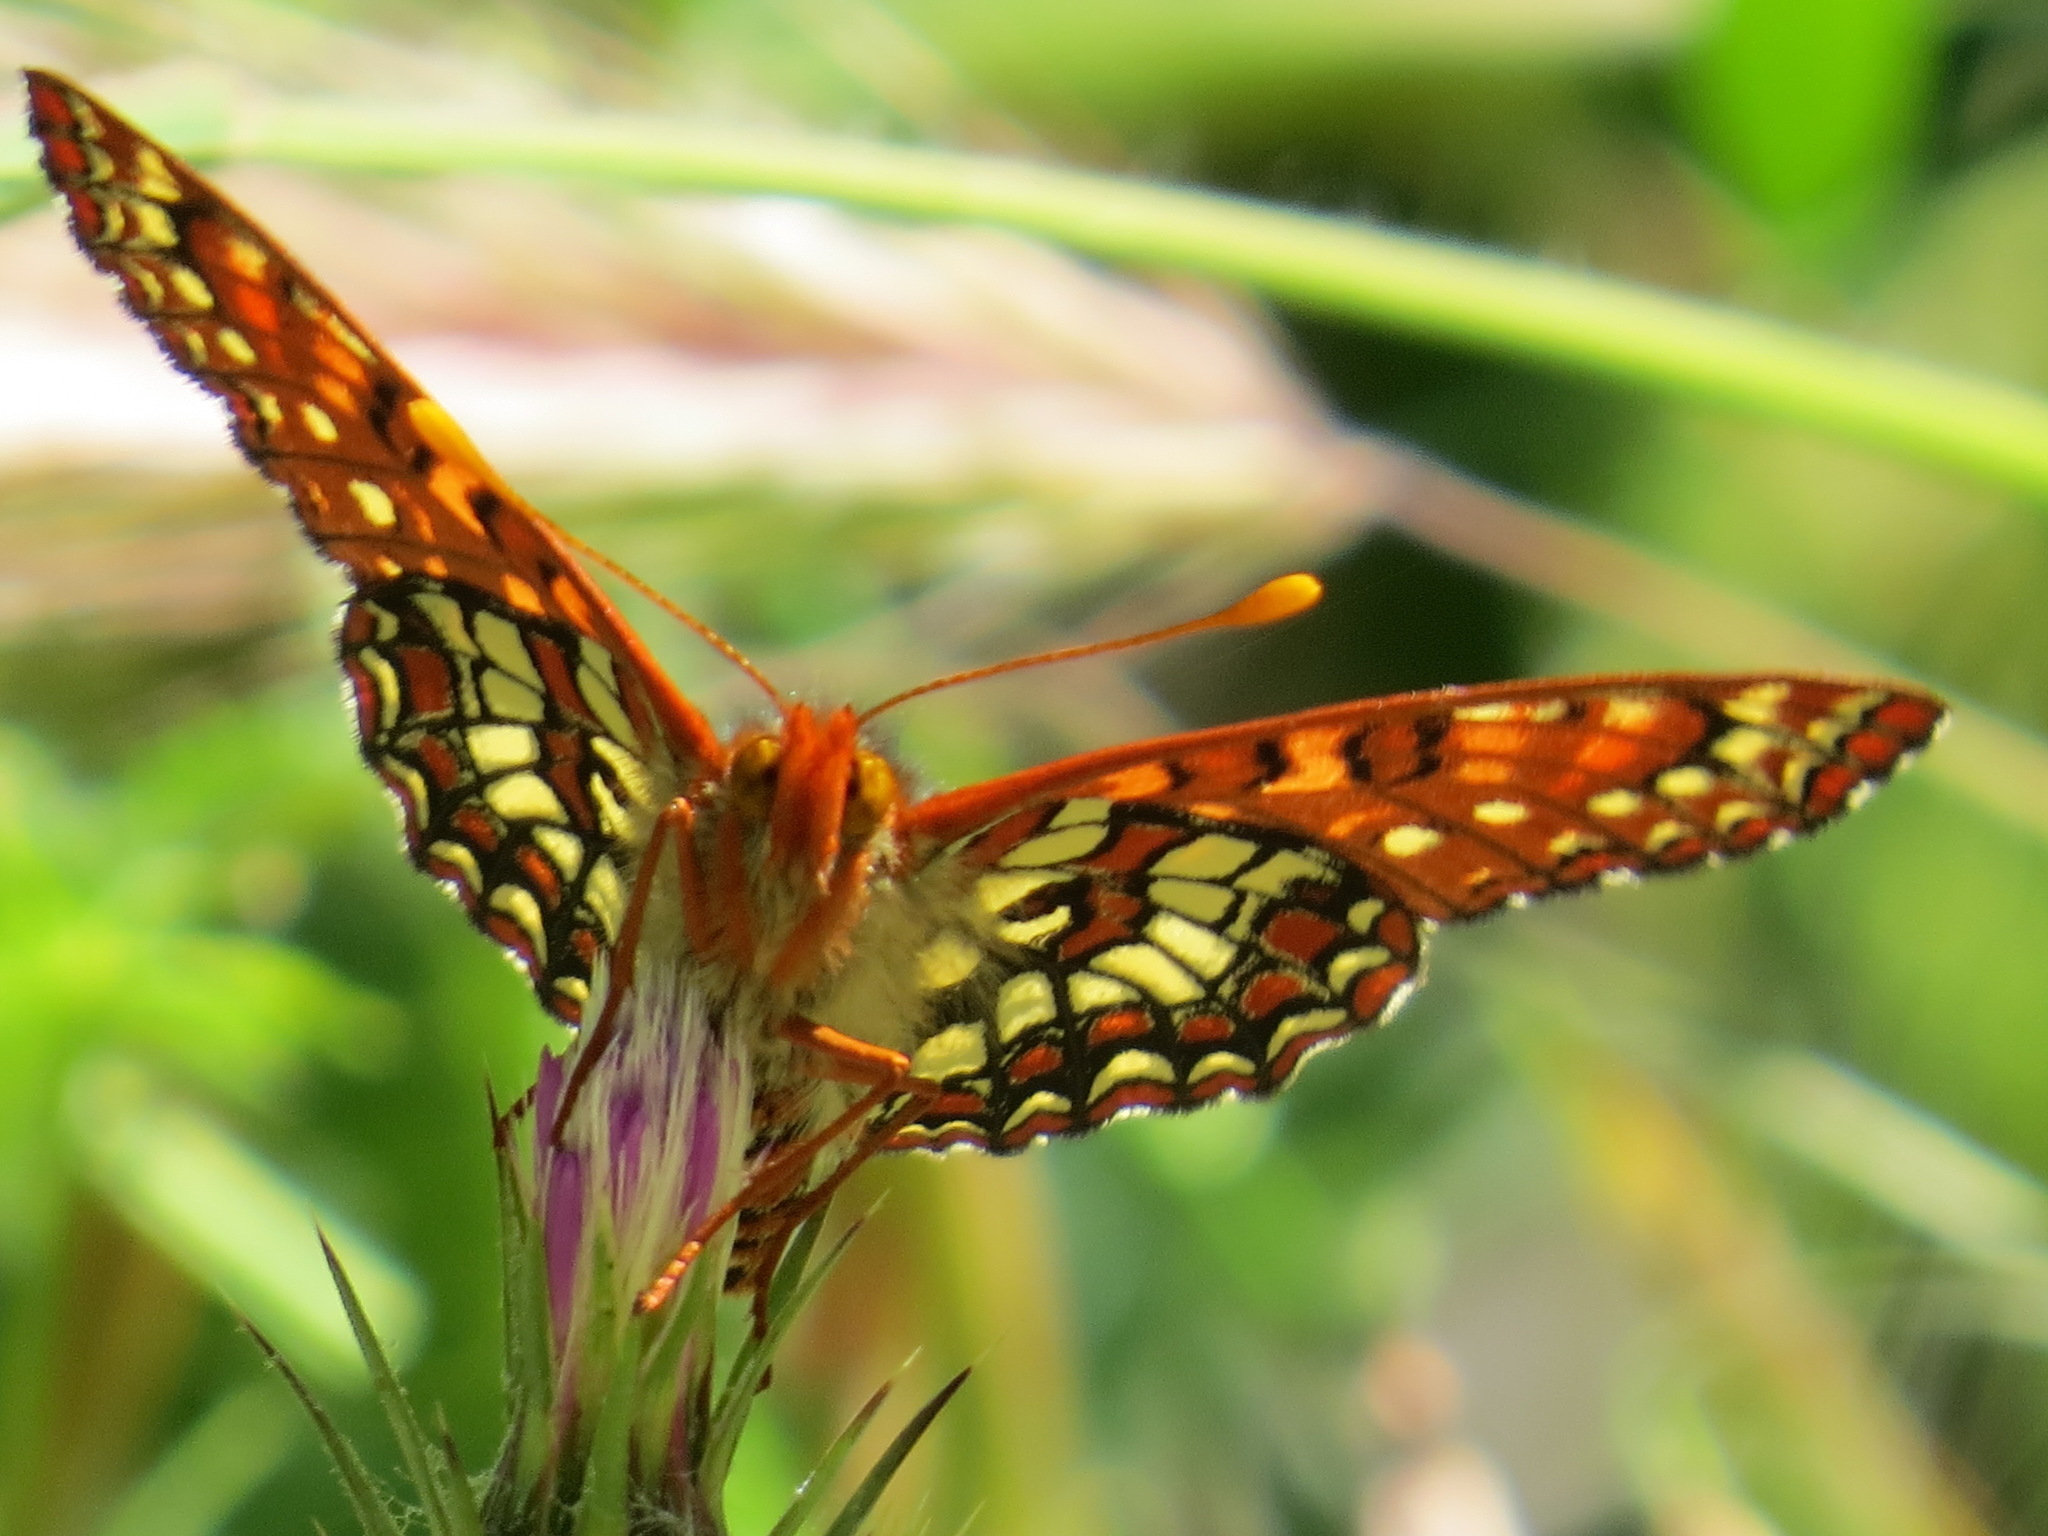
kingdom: Animalia
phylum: Arthropoda
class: Insecta
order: Lepidoptera
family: Nymphalidae
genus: Occidryas
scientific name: Occidryas chalcedona
